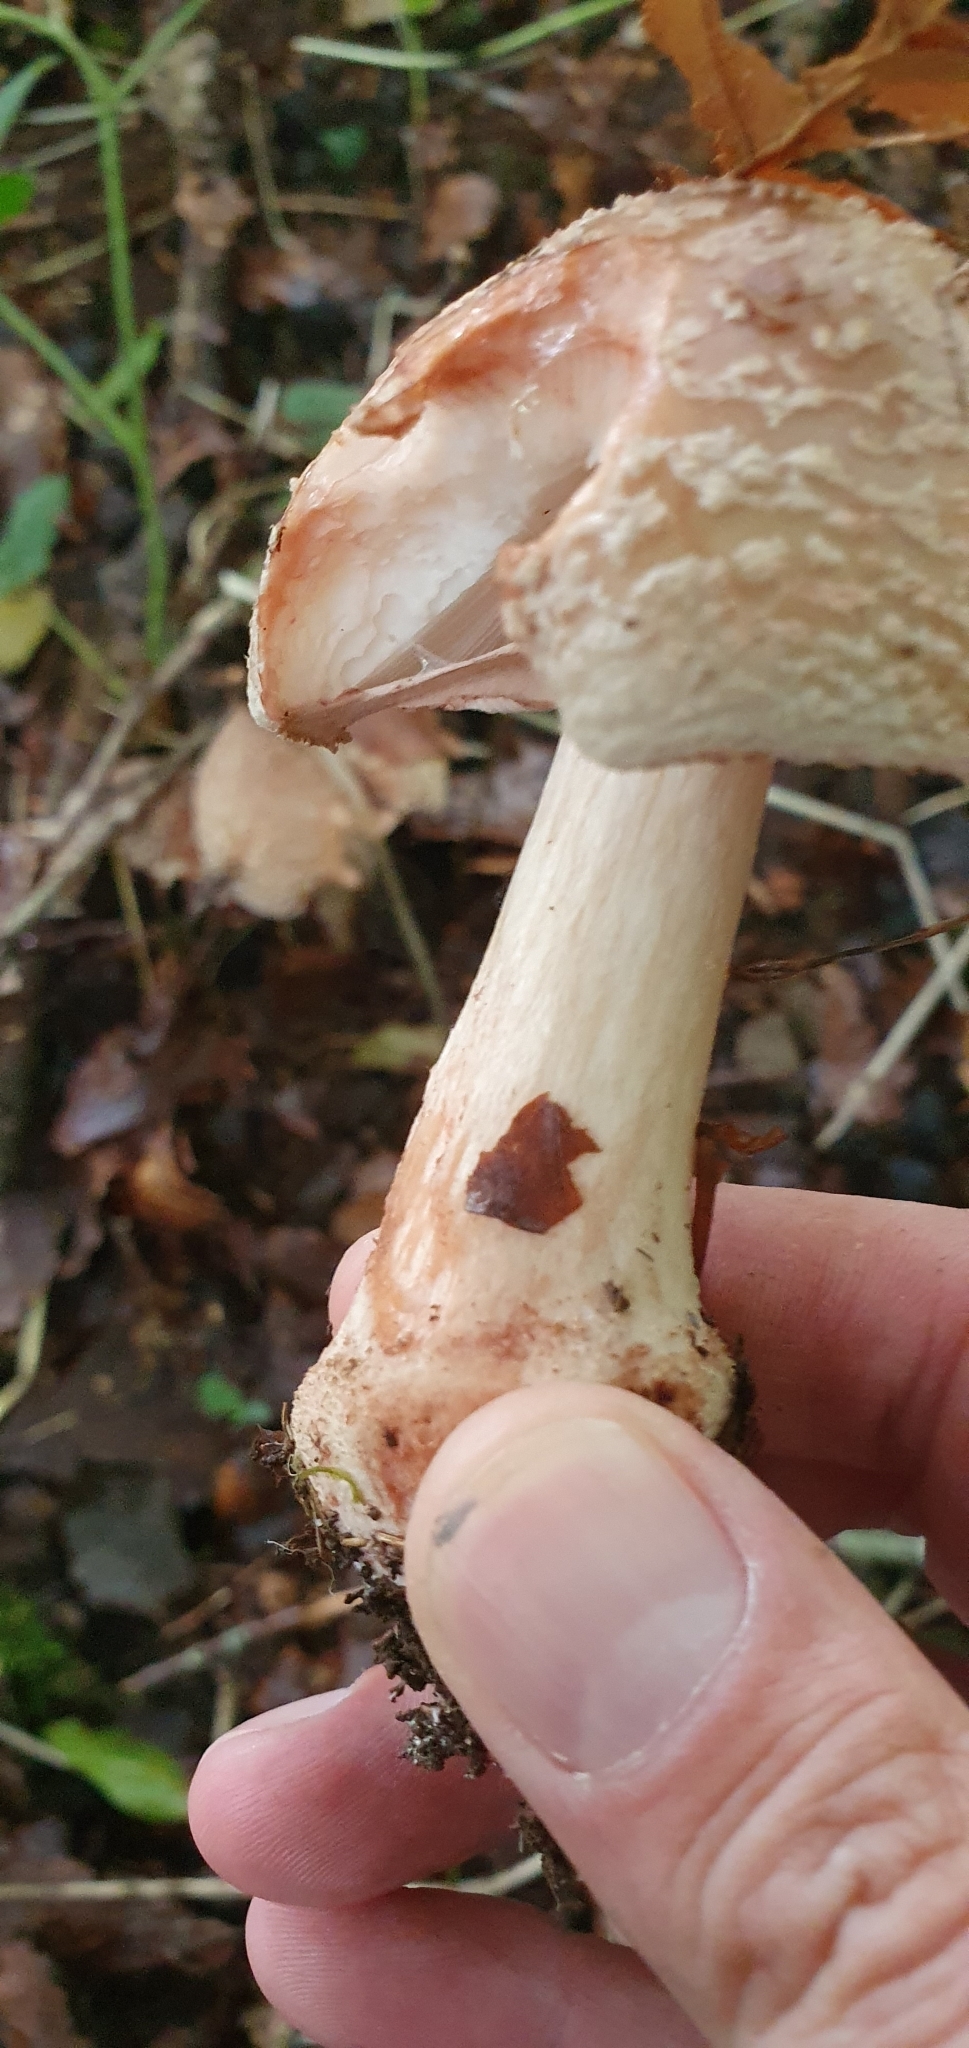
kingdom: Fungi
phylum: Basidiomycota
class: Agaricomycetes
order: Agaricales
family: Amanitaceae
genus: Amanita
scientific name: Amanita rubescens
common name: Blusher
